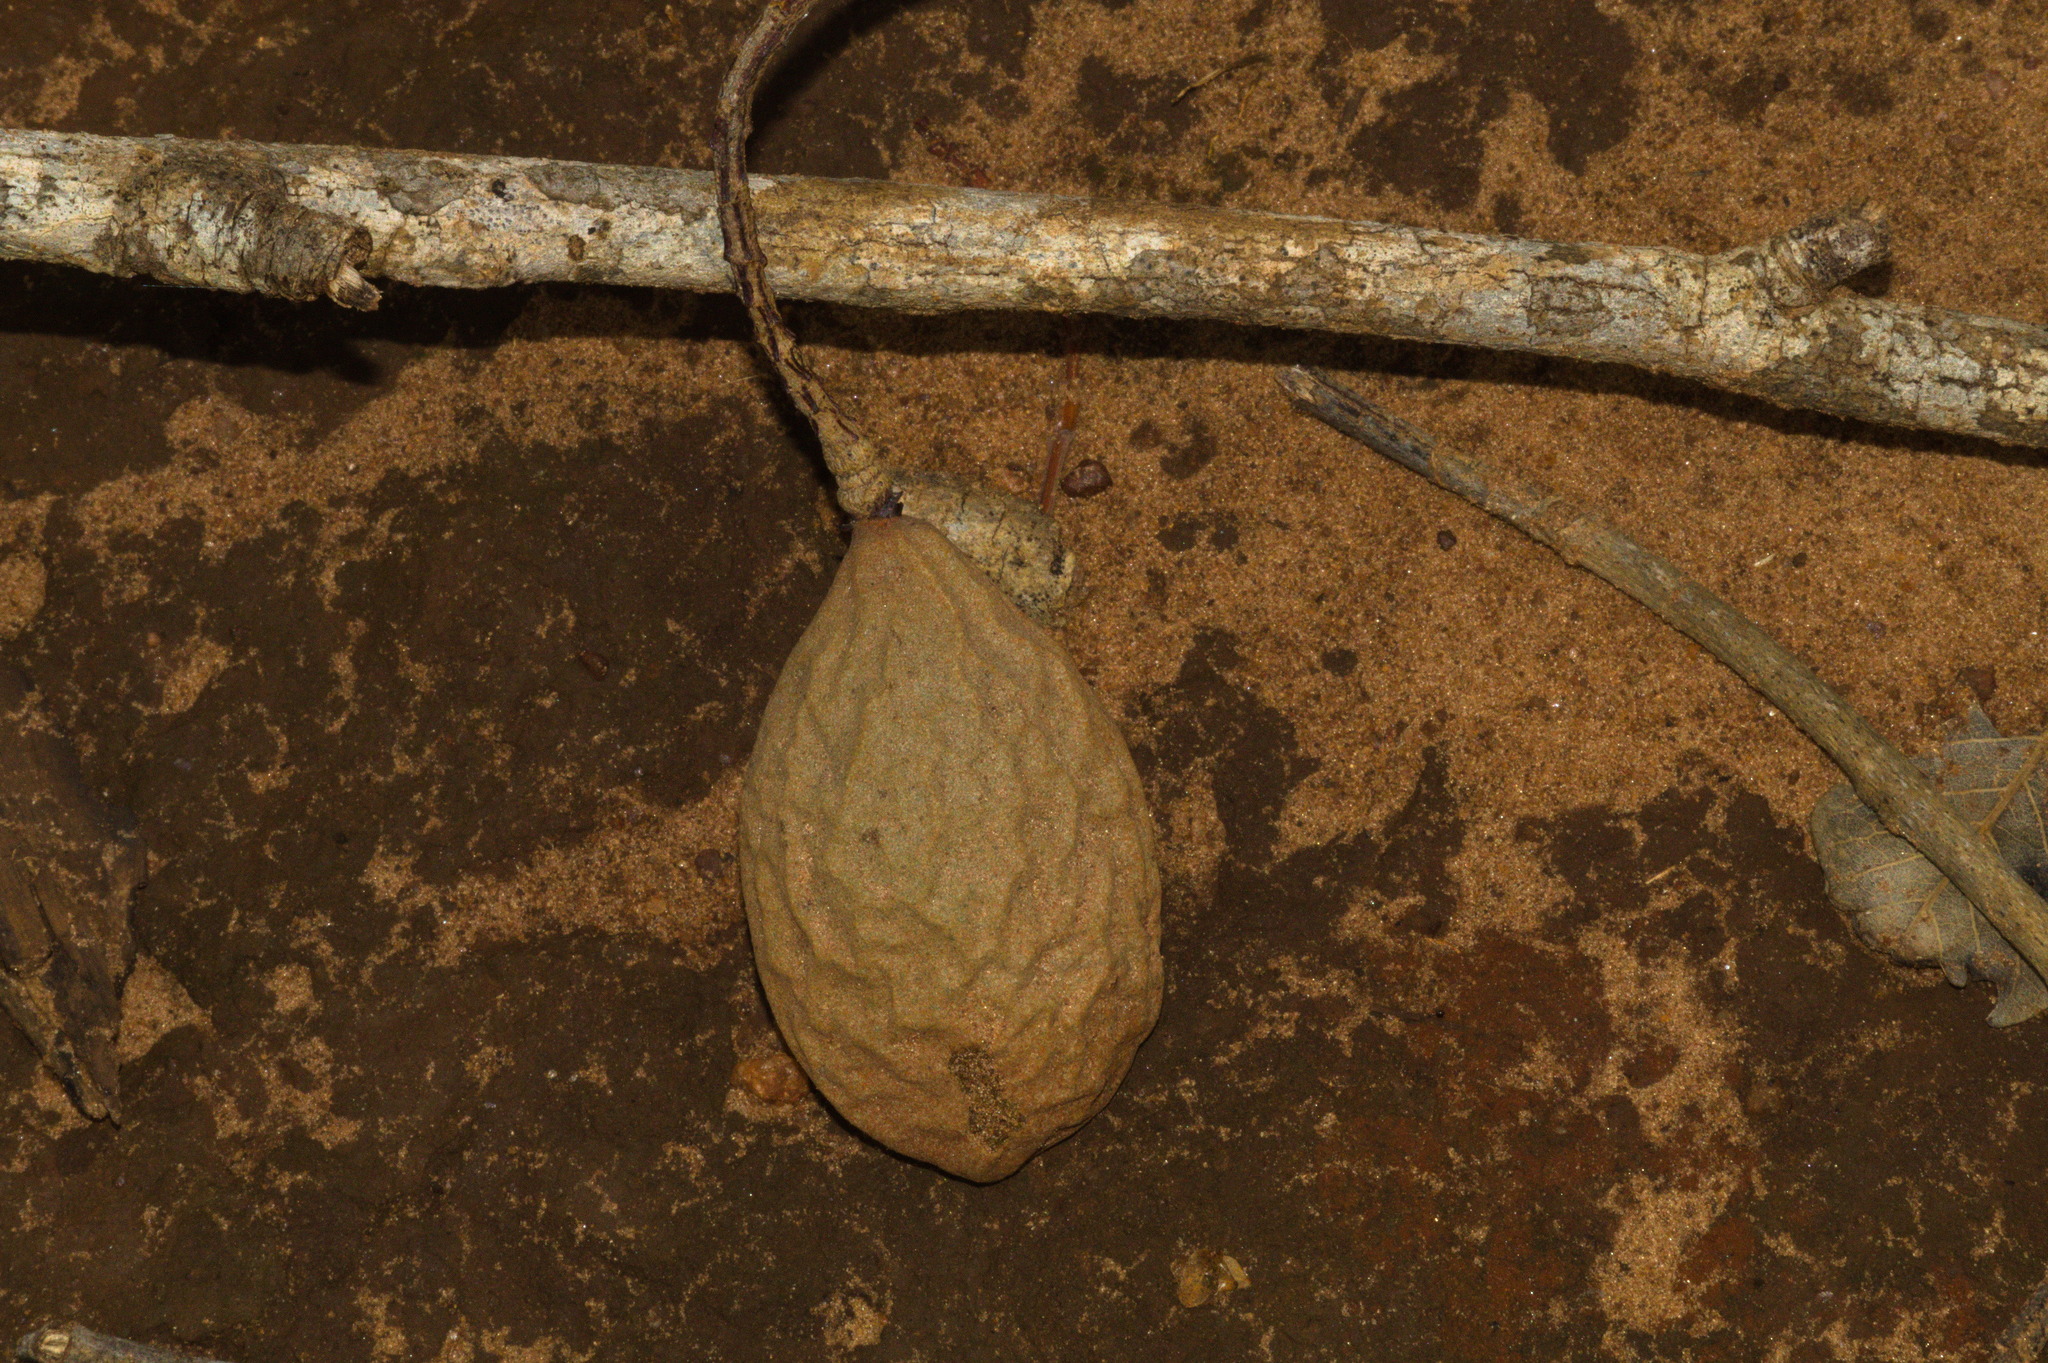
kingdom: Plantae
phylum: Tracheophyta
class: Magnoliopsida
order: Fabales
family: Fabaceae
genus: Dipteryx
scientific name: Dipteryx alata
